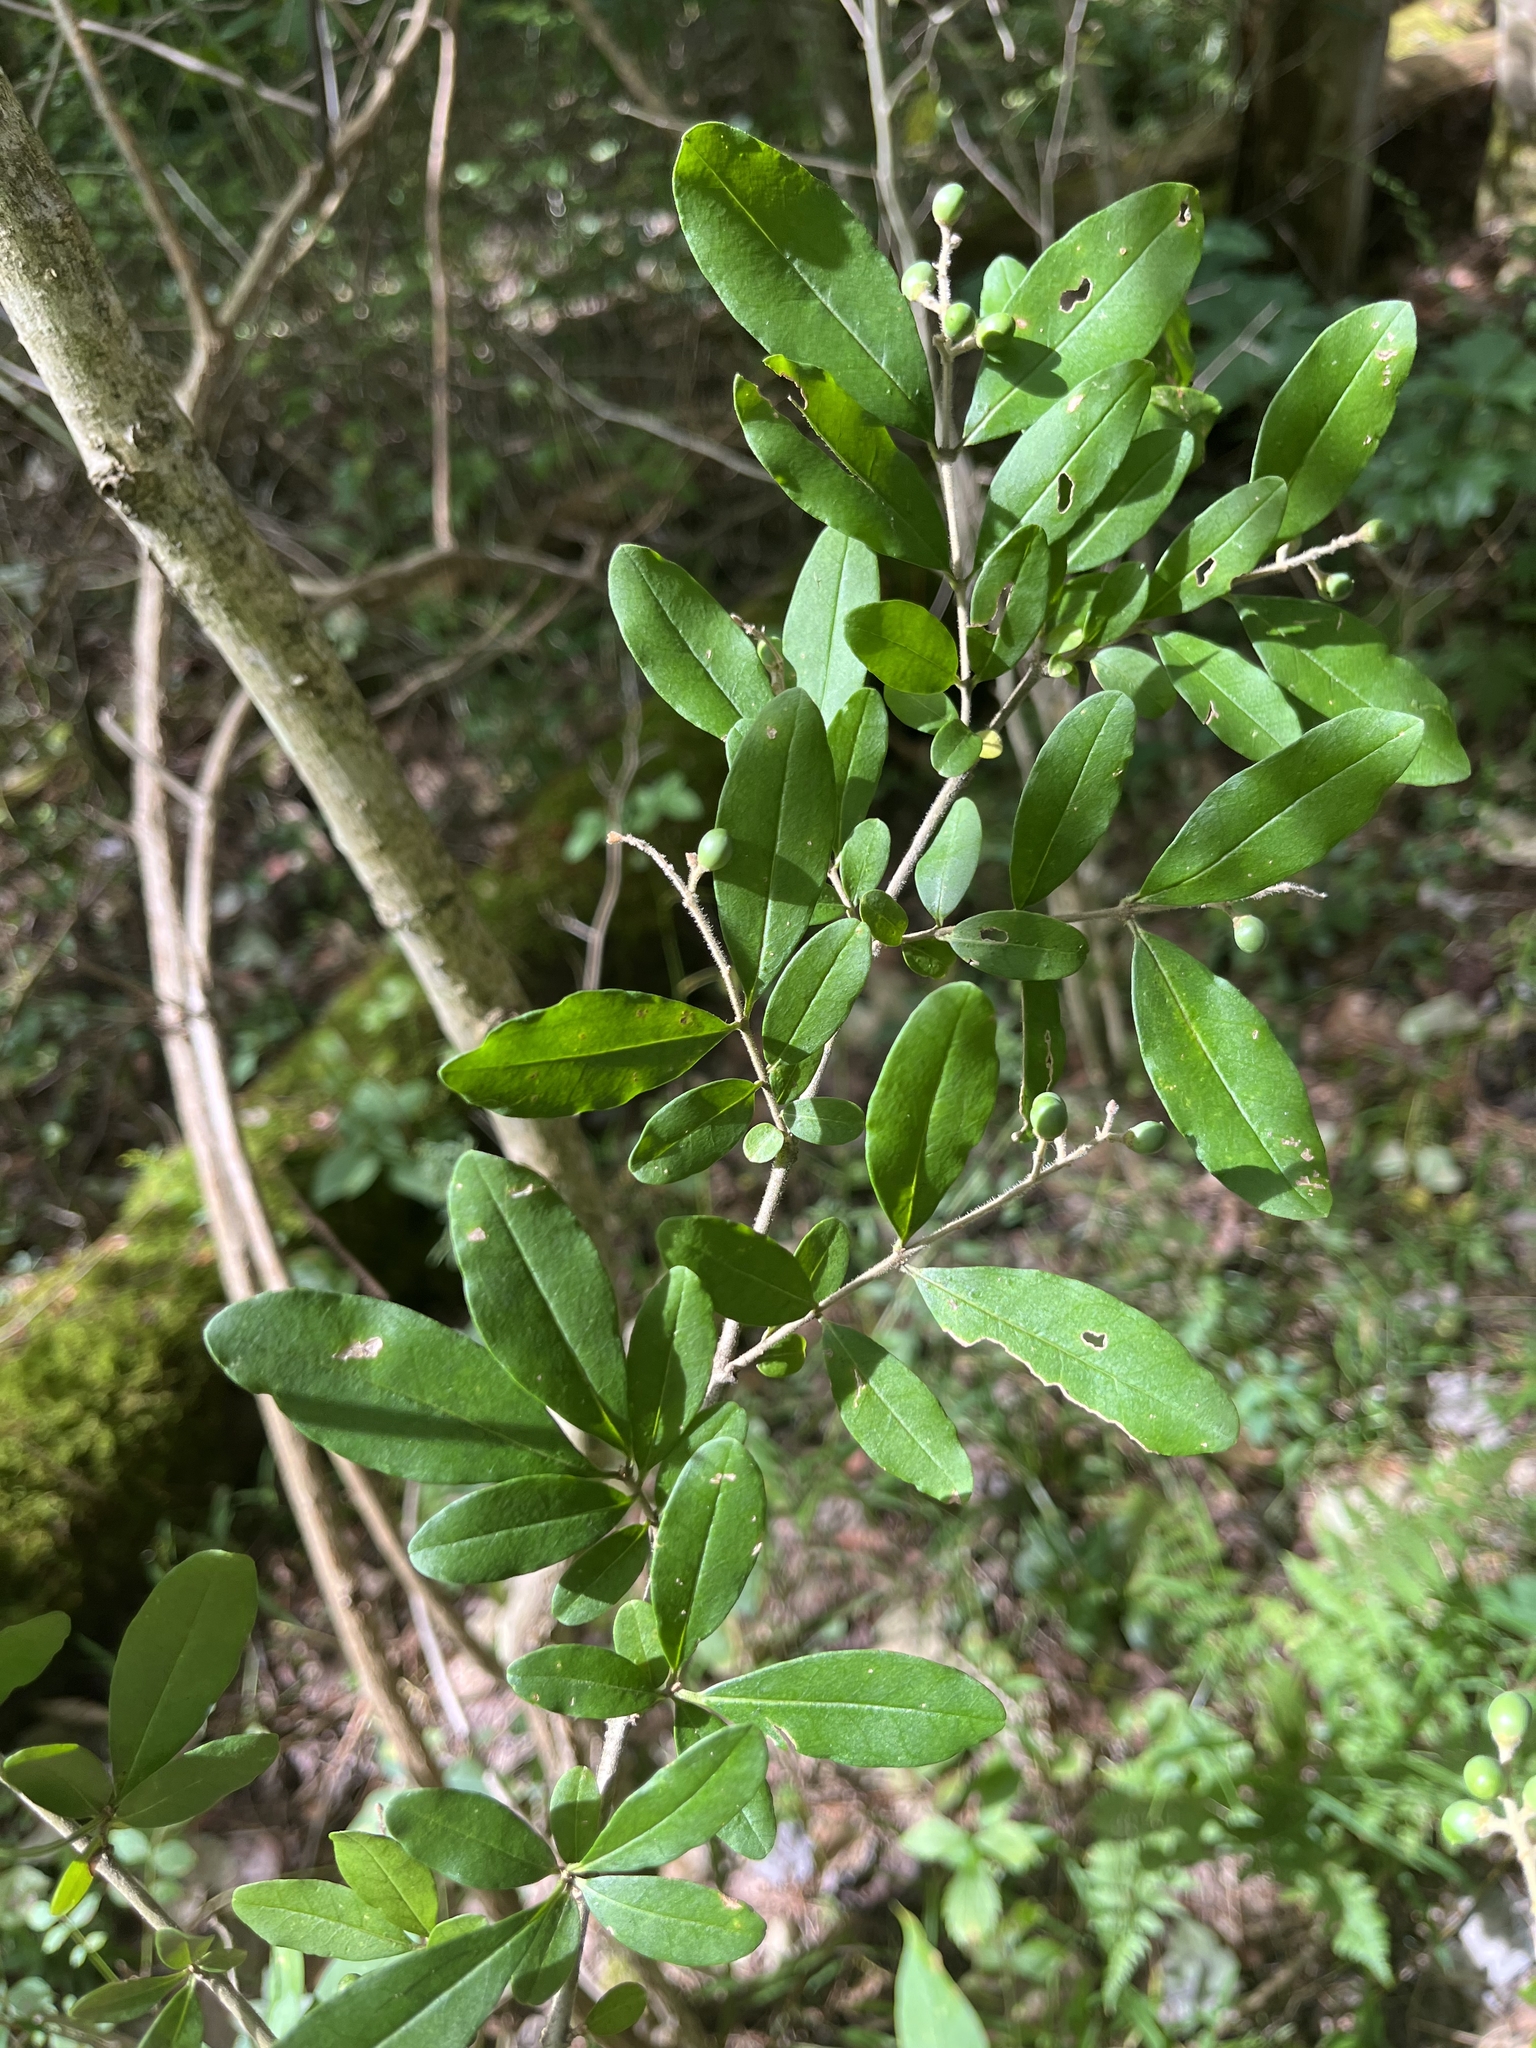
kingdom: Plantae
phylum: Tracheophyta
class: Magnoliopsida
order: Lamiales
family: Oleaceae
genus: Ligustrum
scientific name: Ligustrum obtusifolium
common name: Border privet
